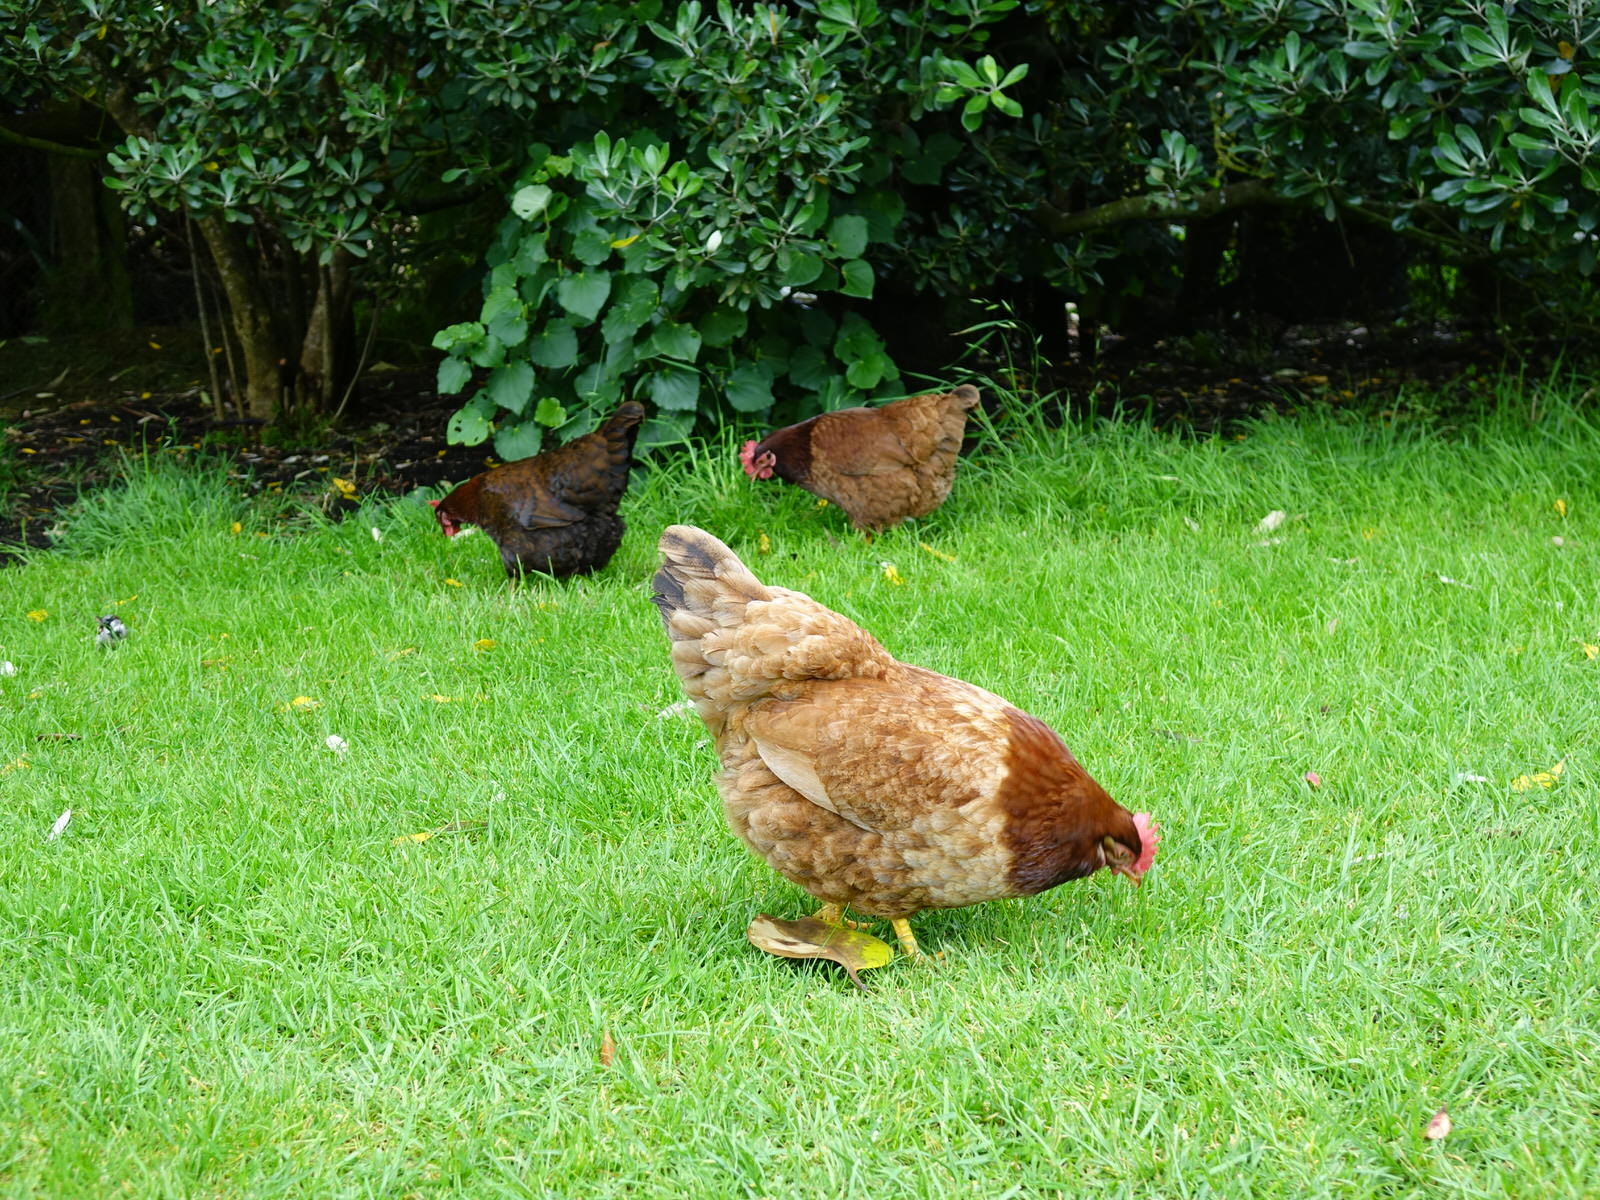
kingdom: Animalia
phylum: Chordata
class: Aves
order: Galliformes
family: Phasianidae
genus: Gallus
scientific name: Gallus gallus
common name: Red junglefowl
